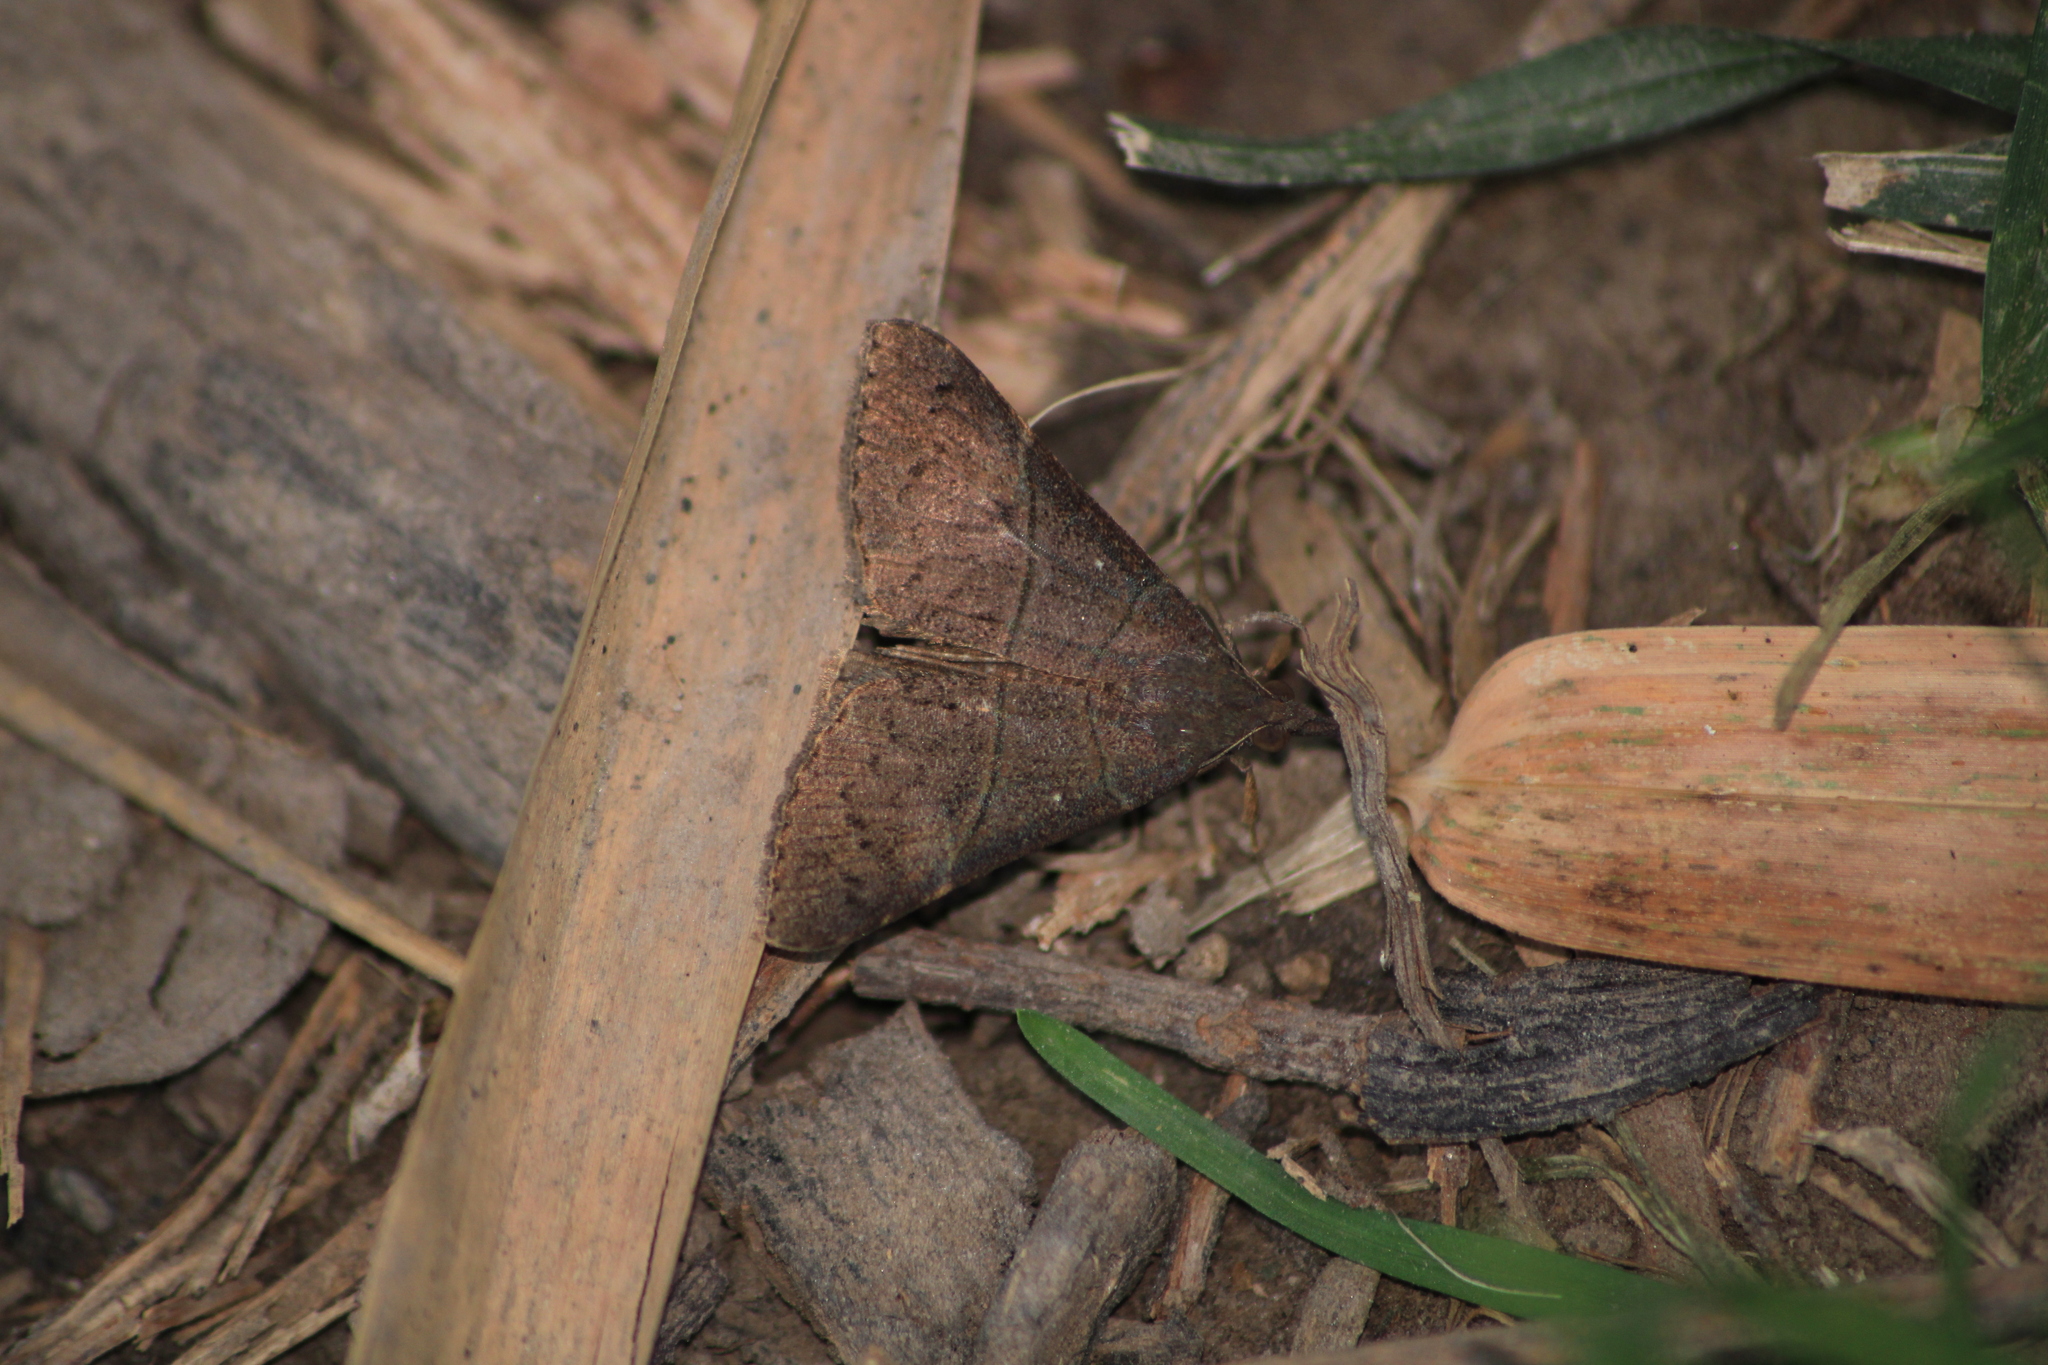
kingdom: Animalia
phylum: Arthropoda
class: Insecta
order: Lepidoptera
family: Erebidae
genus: Mocis
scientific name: Mocis latipes
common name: Striped grass looper
